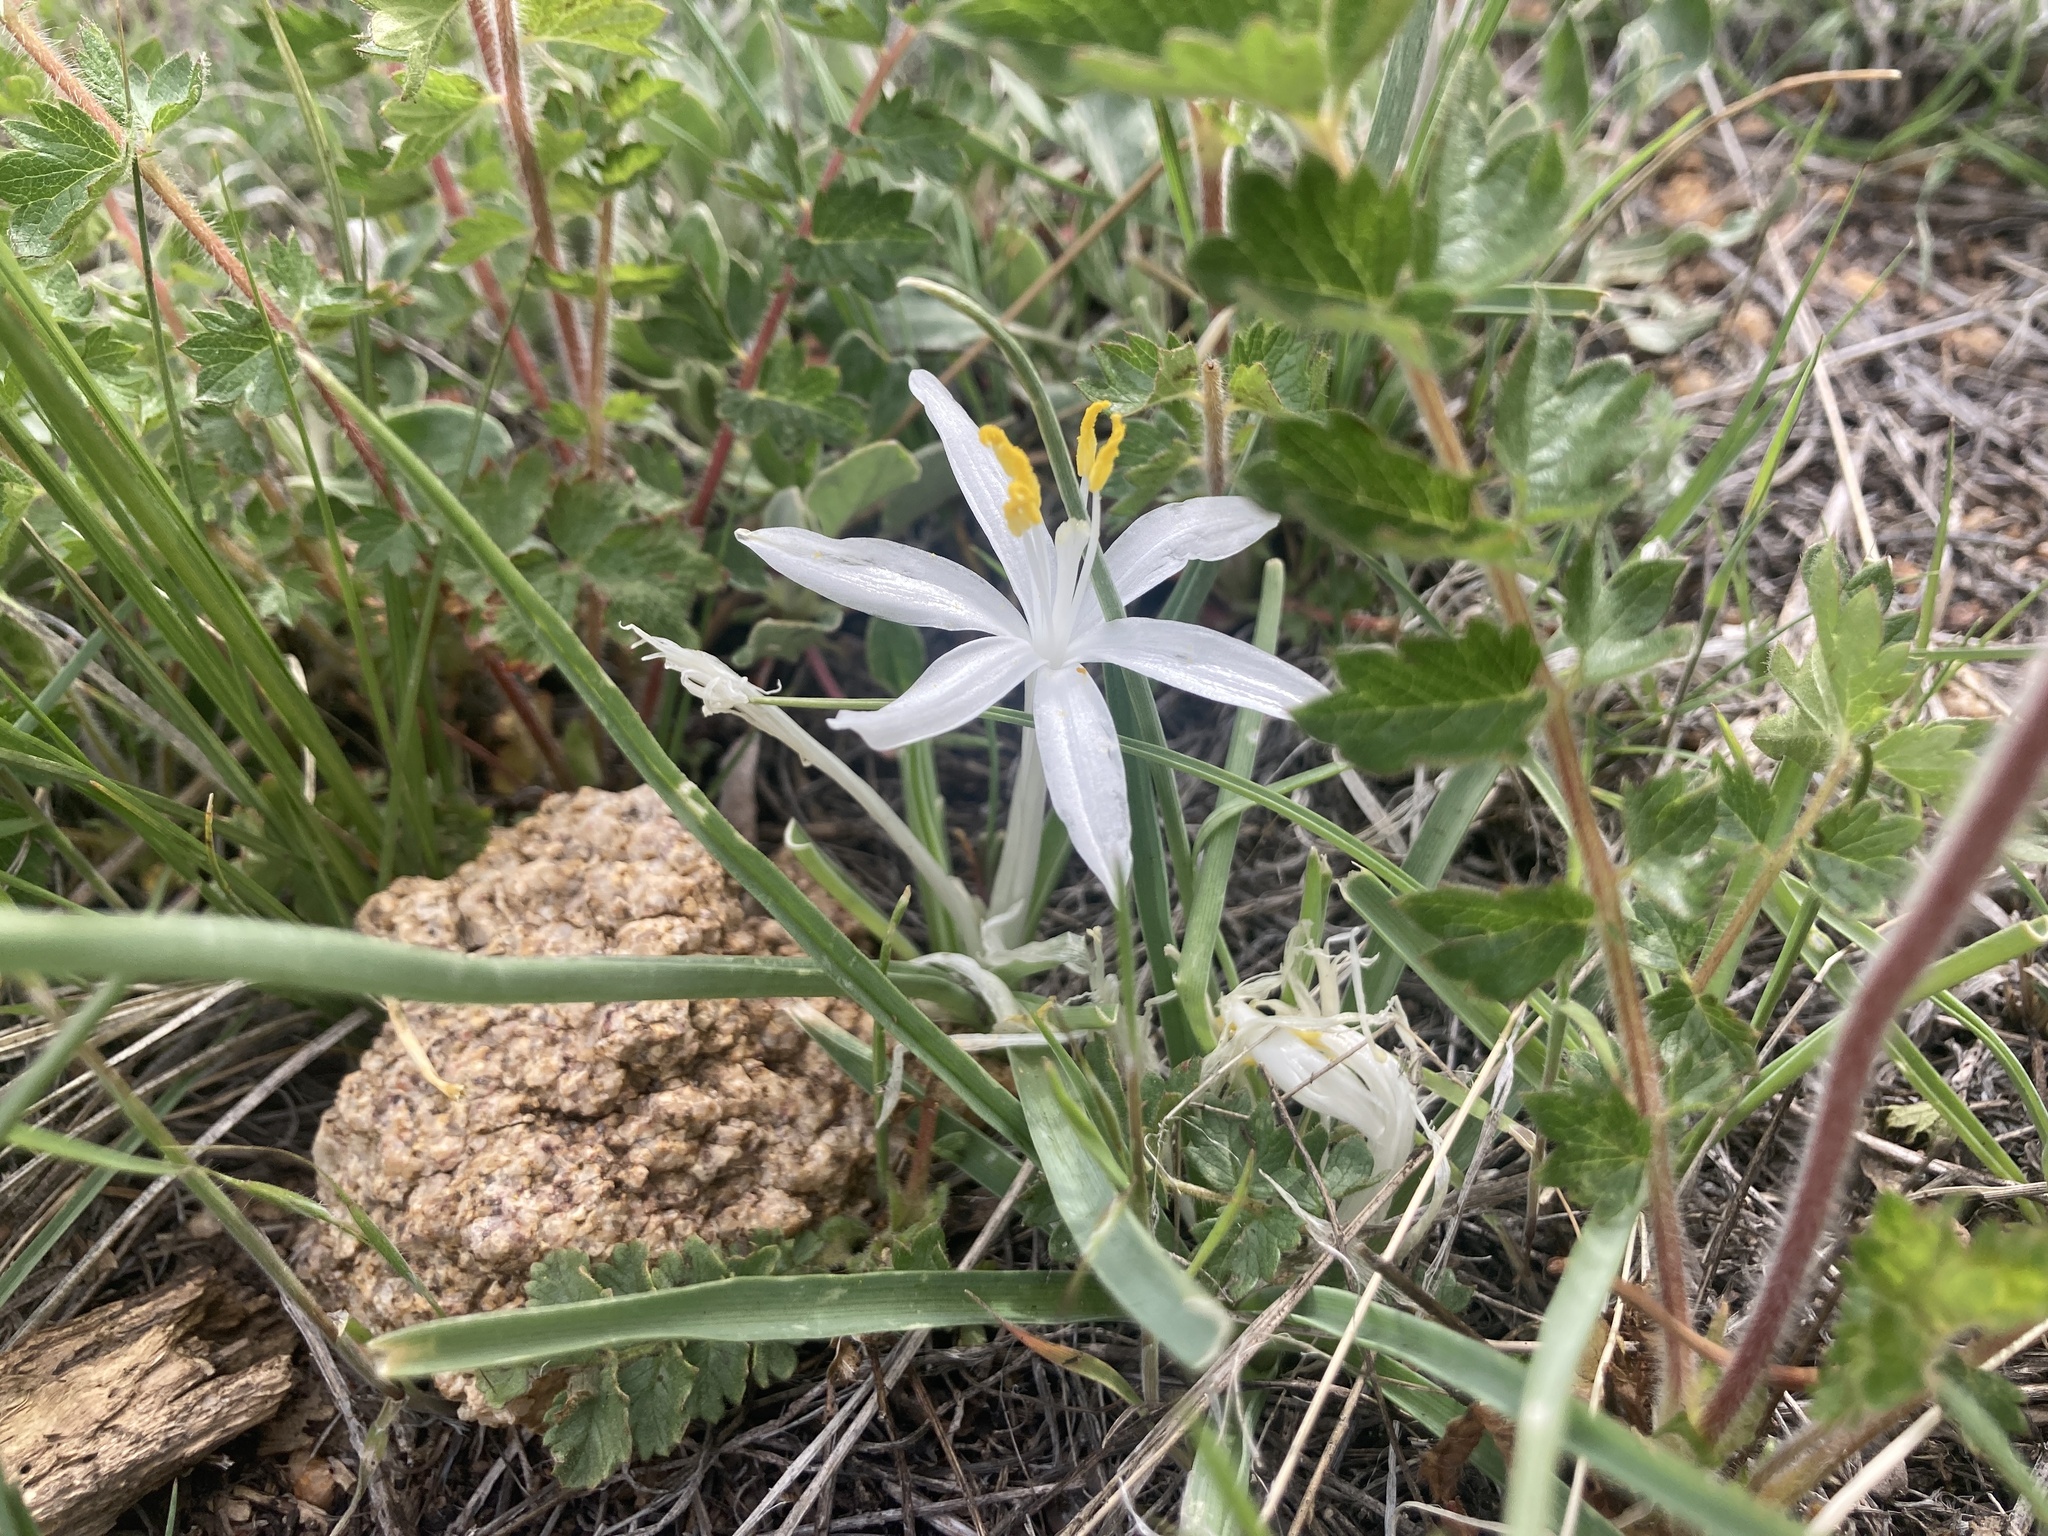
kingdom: Plantae
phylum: Tracheophyta
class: Liliopsida
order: Asparagales
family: Asparagaceae
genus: Leucocrinum
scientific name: Leucocrinum montanum
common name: Mountain-lily
